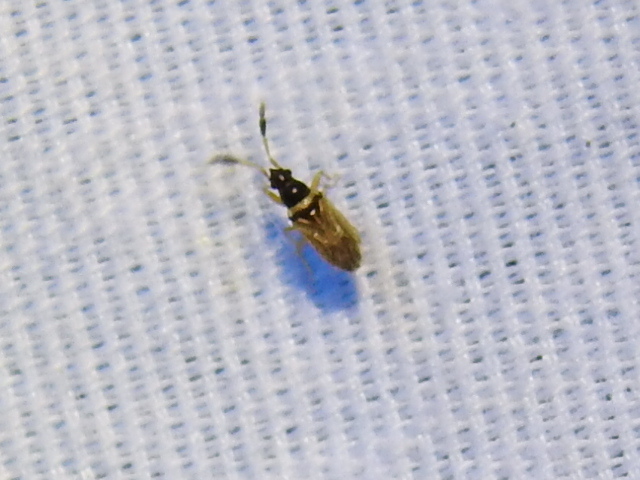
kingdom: Animalia
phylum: Arthropoda
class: Insecta
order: Hemiptera
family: Rhyparochromidae
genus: Ptochiomera
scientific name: Ptochiomera nodosa
